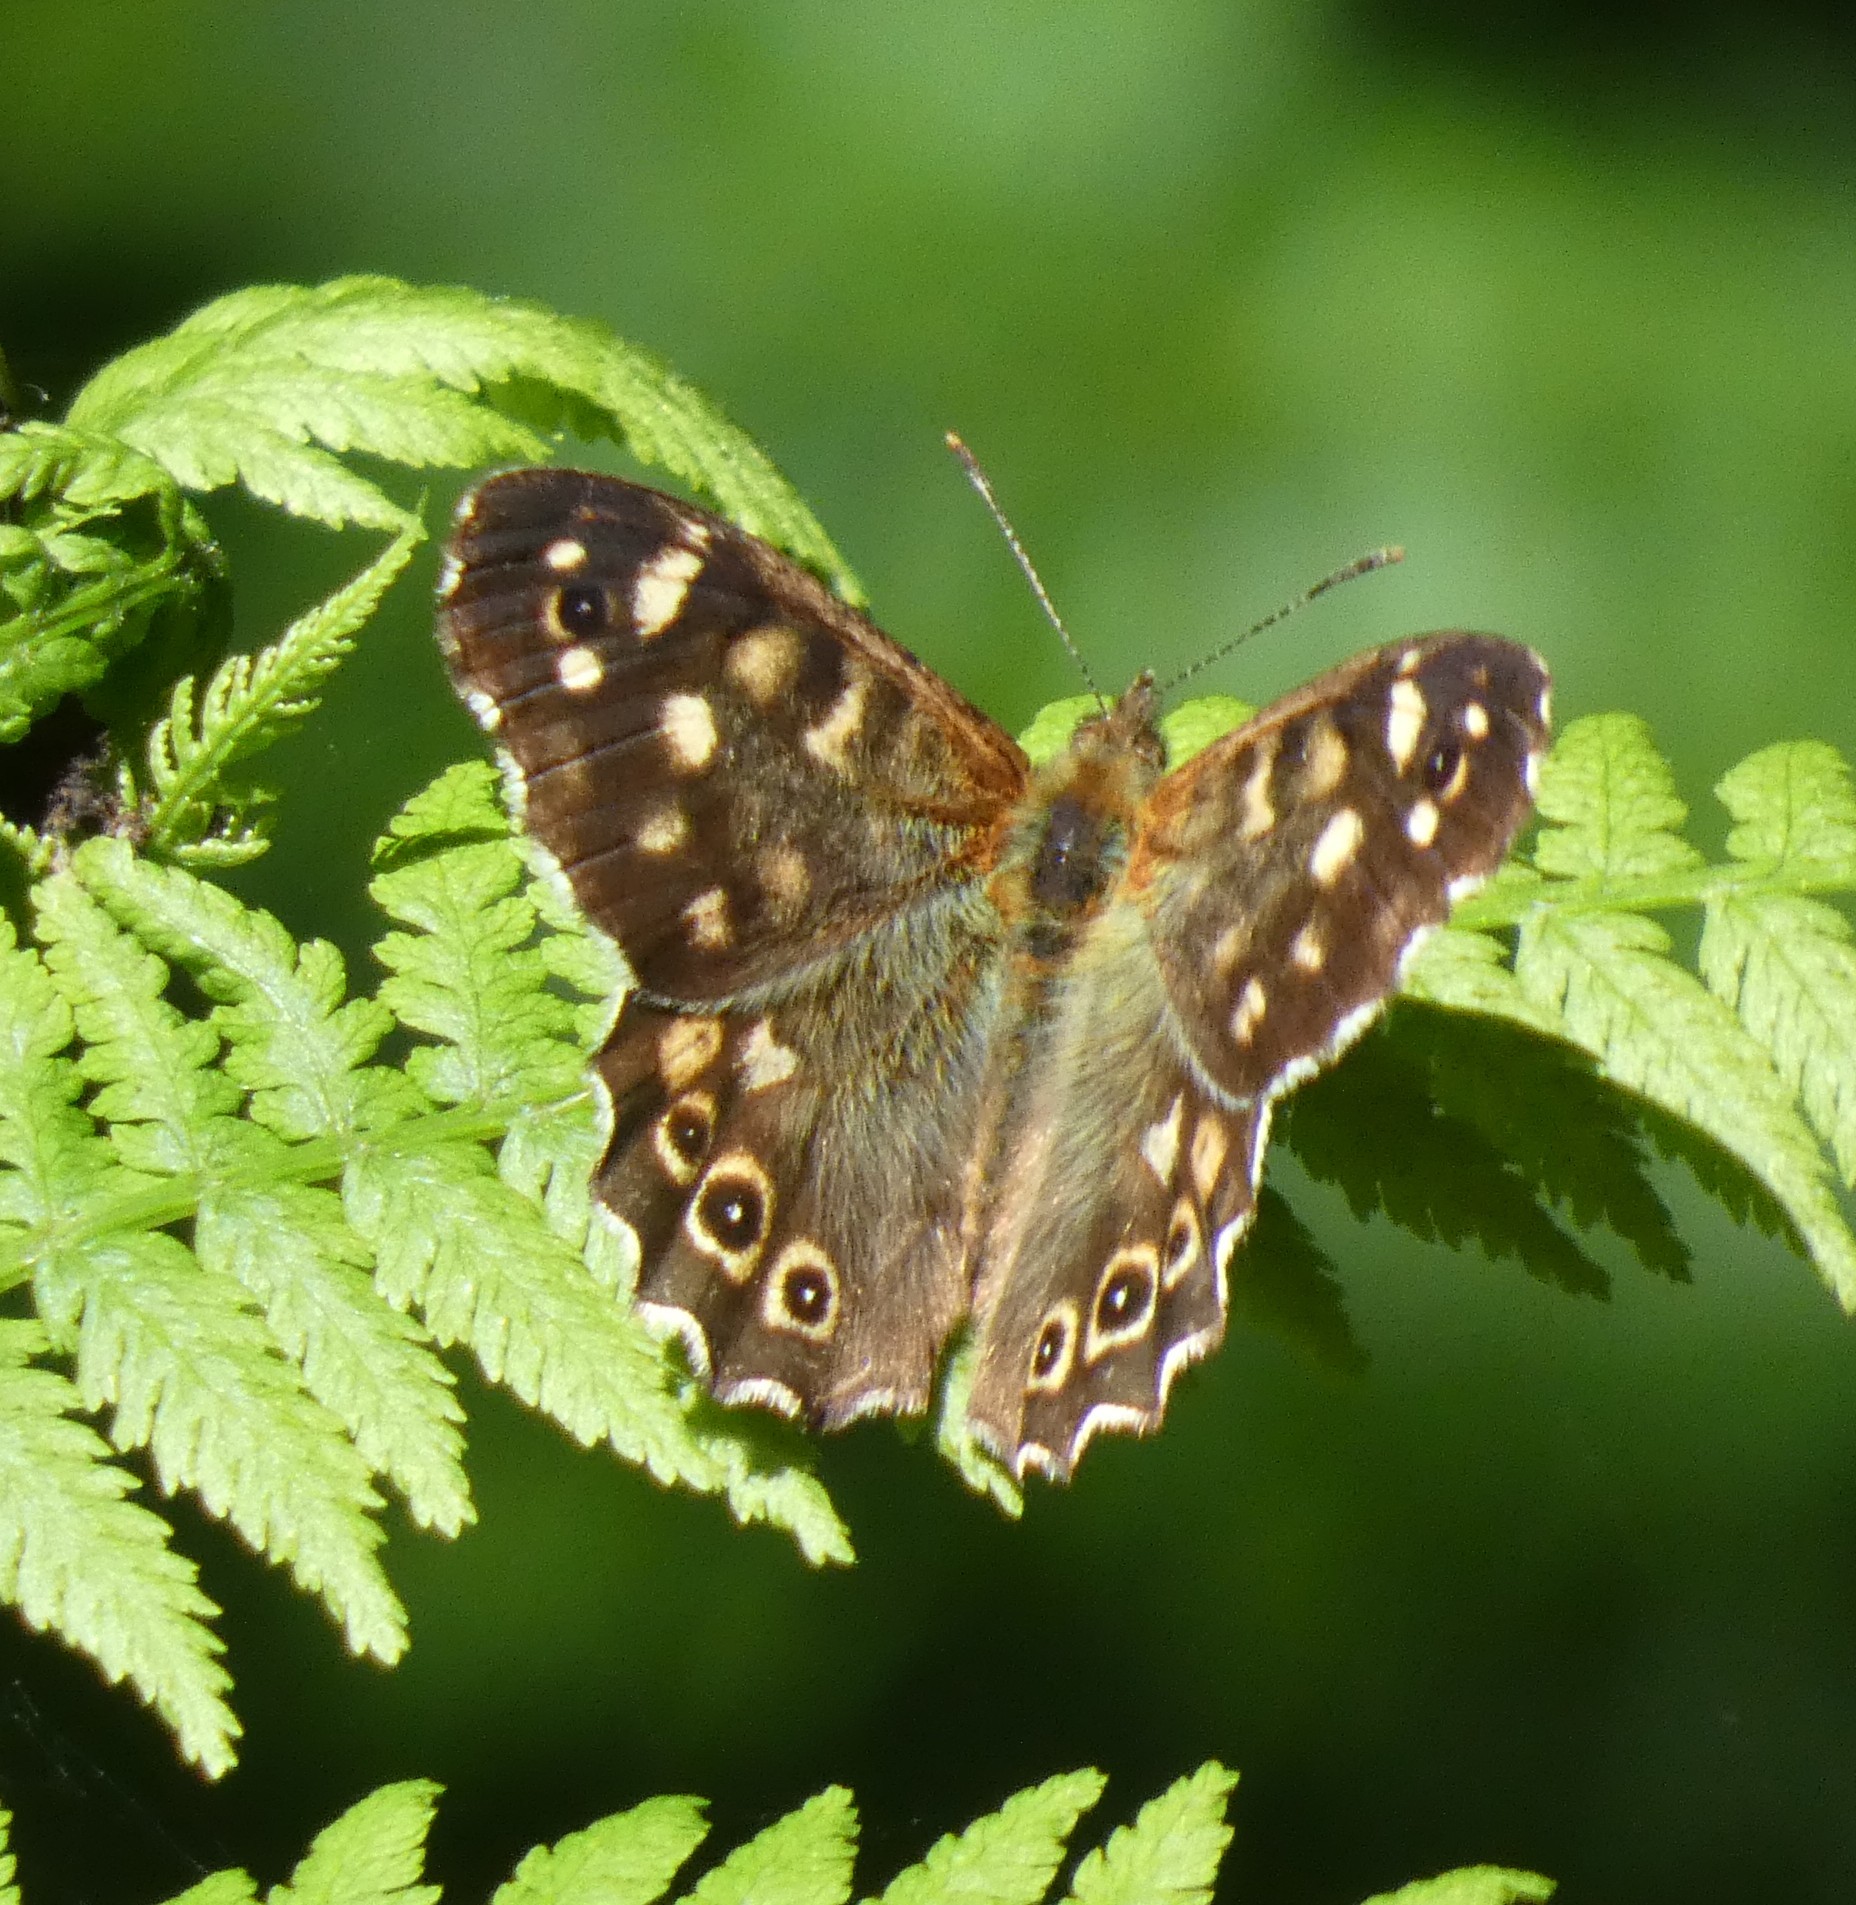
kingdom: Animalia
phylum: Arthropoda
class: Insecta
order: Lepidoptera
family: Nymphalidae
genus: Pararge
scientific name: Pararge aegeria
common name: Speckled wood
